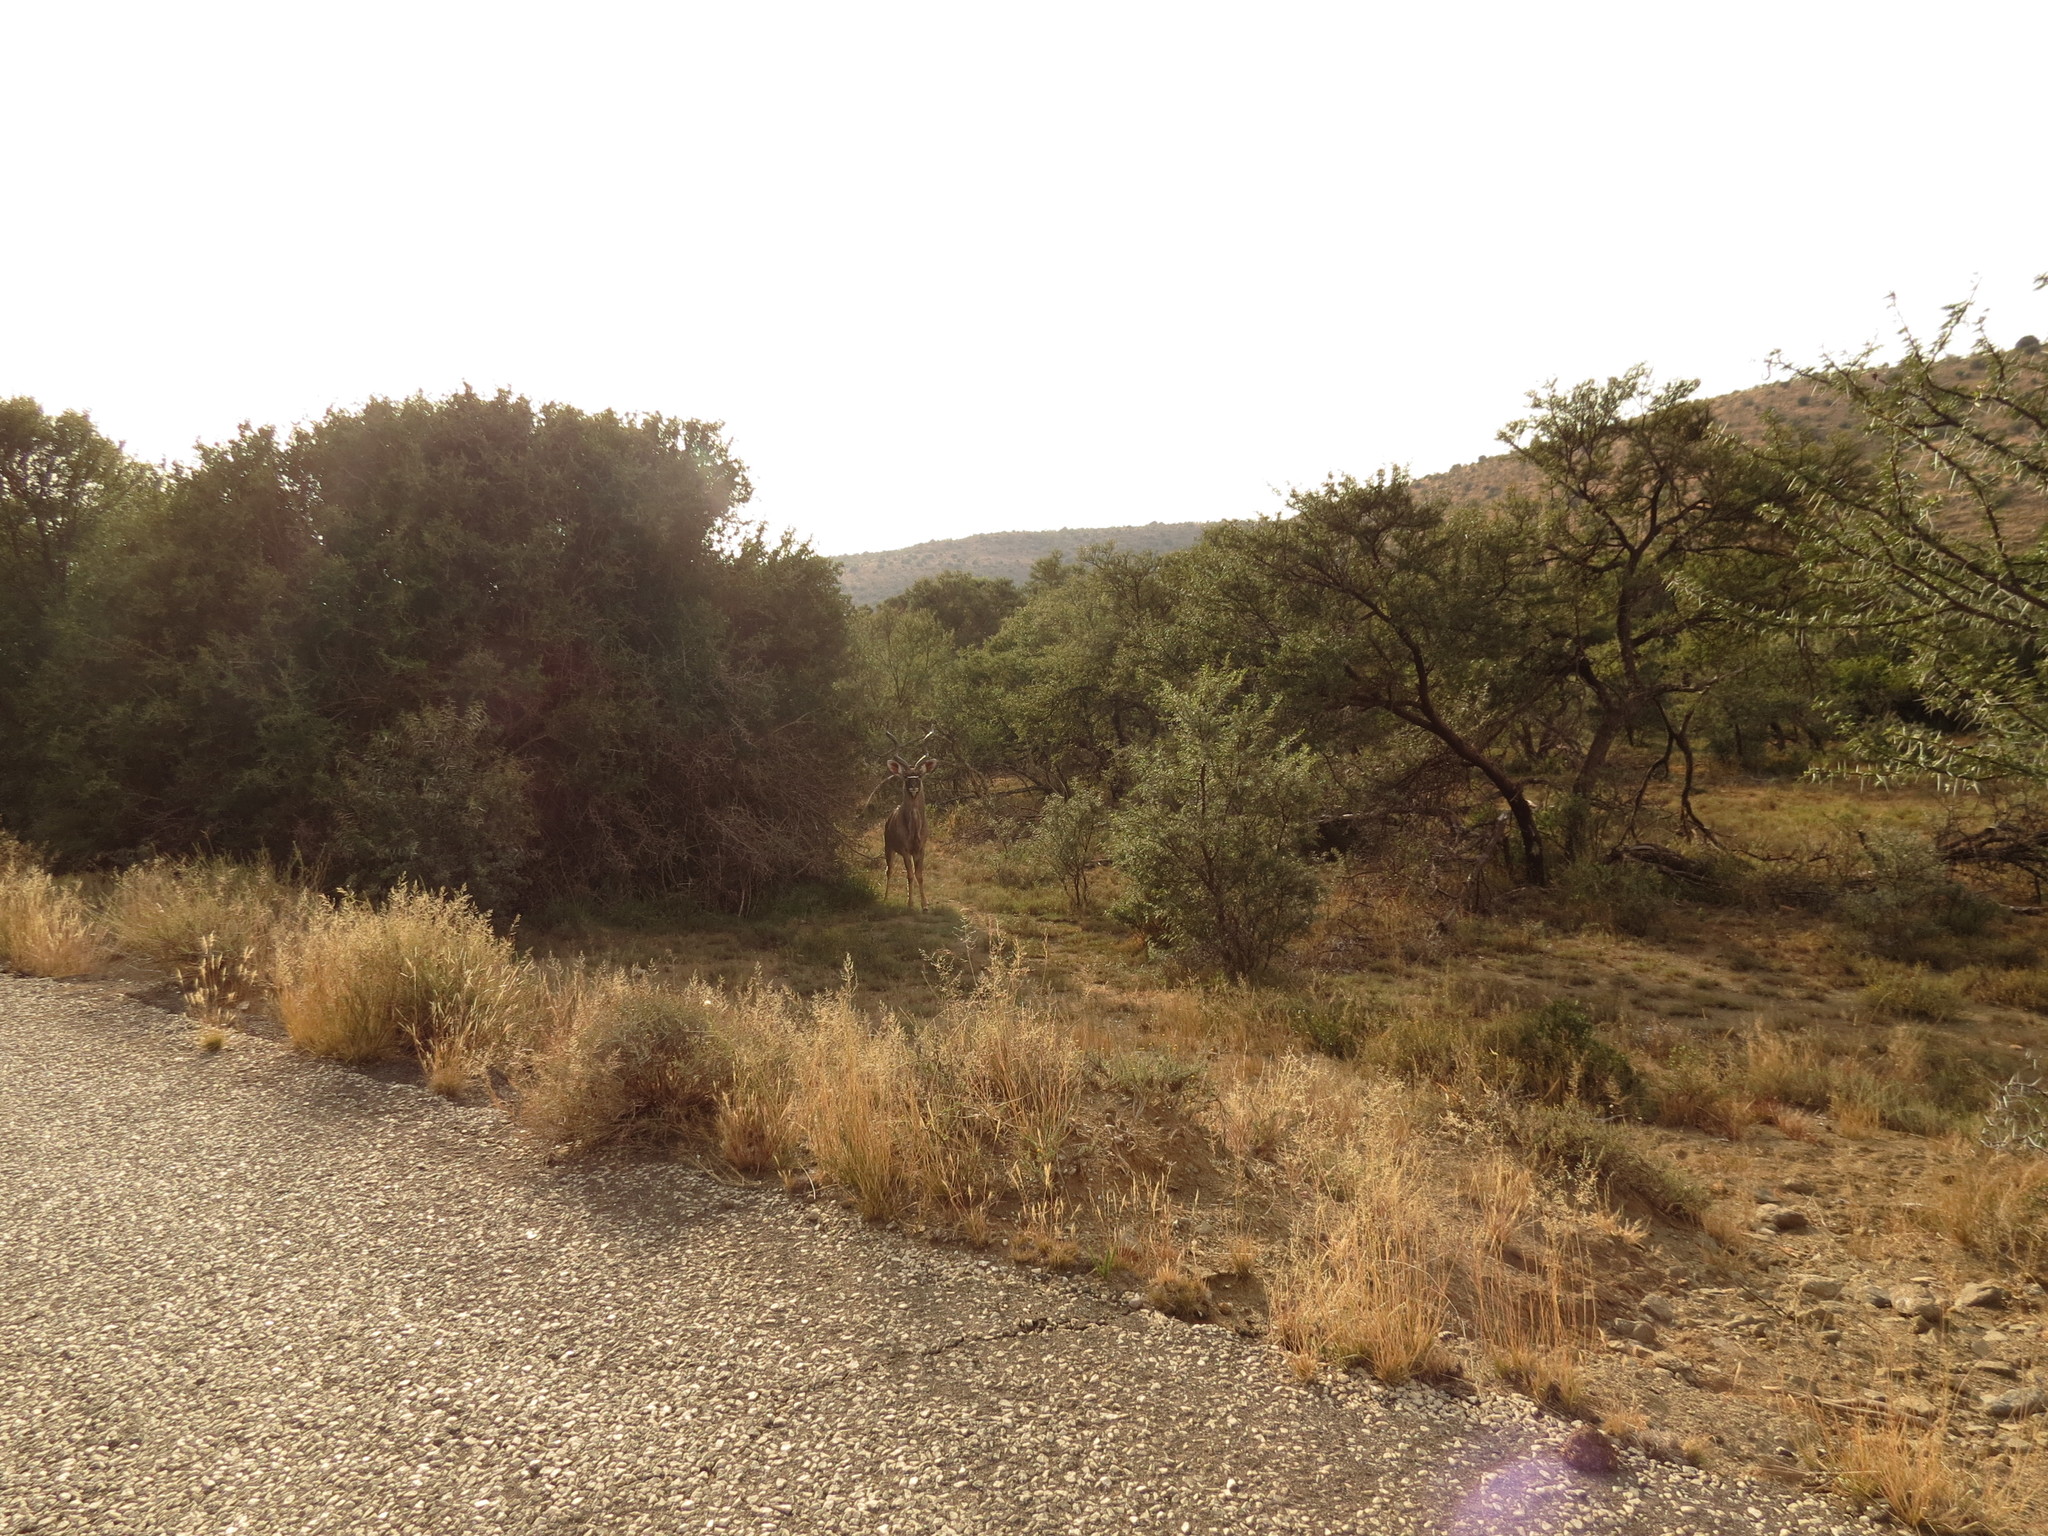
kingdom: Animalia
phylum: Chordata
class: Mammalia
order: Artiodactyla
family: Bovidae
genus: Tragelaphus
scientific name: Tragelaphus strepsiceros
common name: Greater kudu
